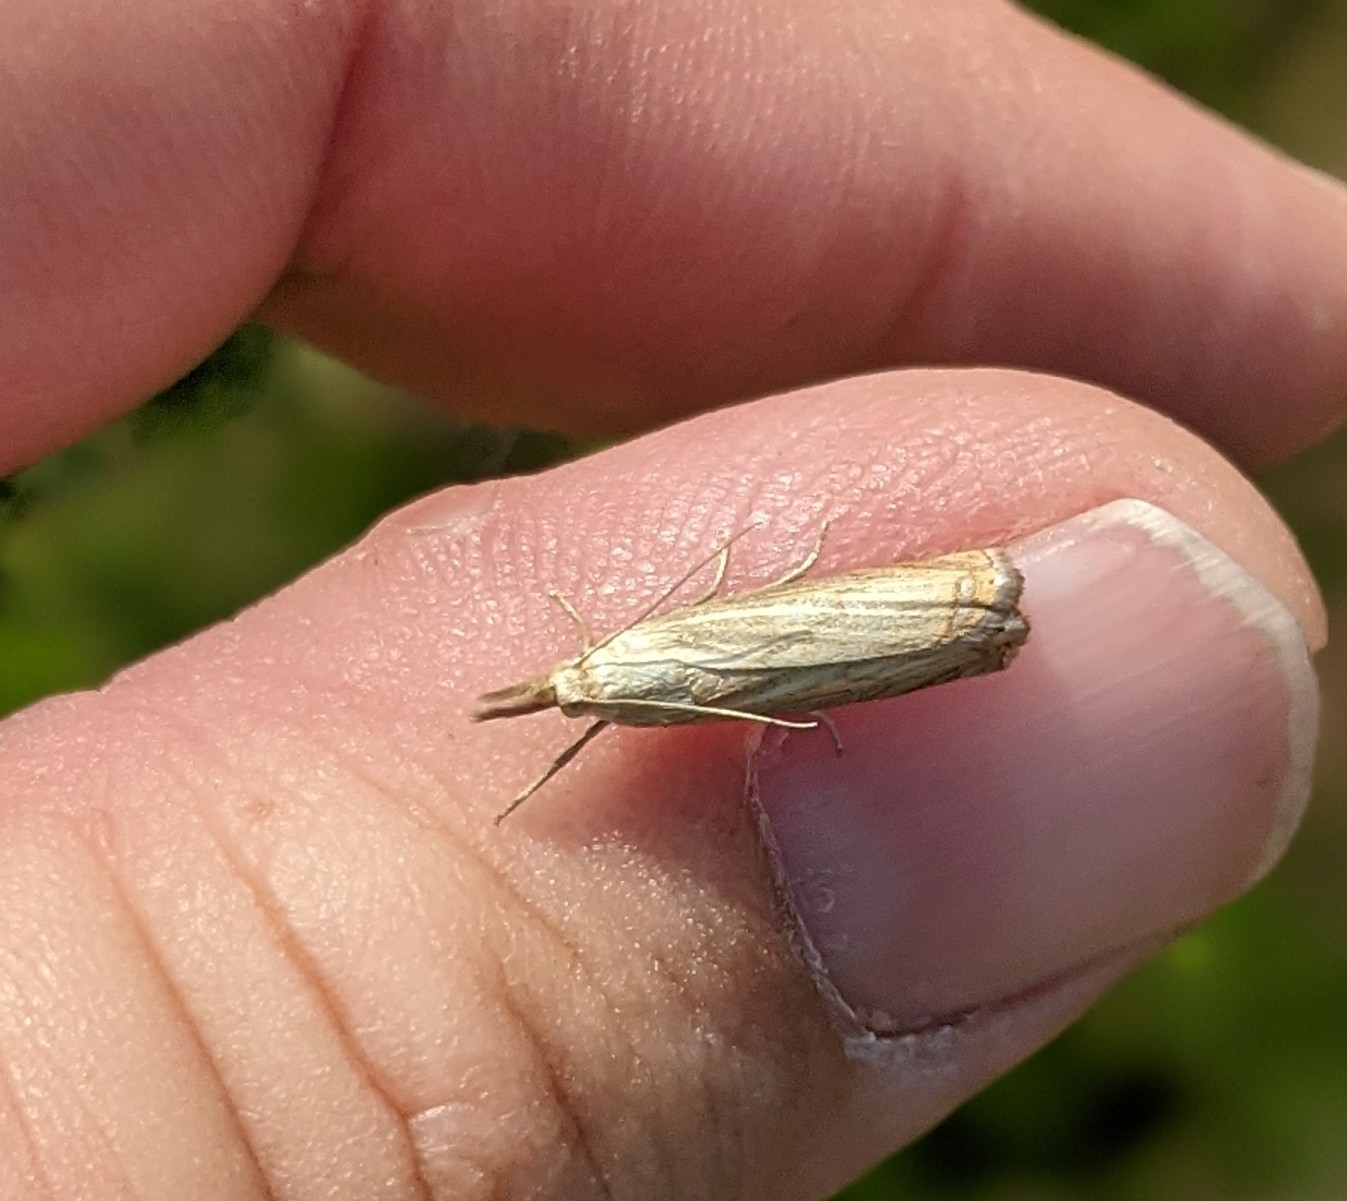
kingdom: Animalia
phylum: Arthropoda
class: Insecta
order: Lepidoptera
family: Crambidae
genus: Chrysoteuchia
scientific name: Chrysoteuchia culmella
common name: Garden grass-veneer
